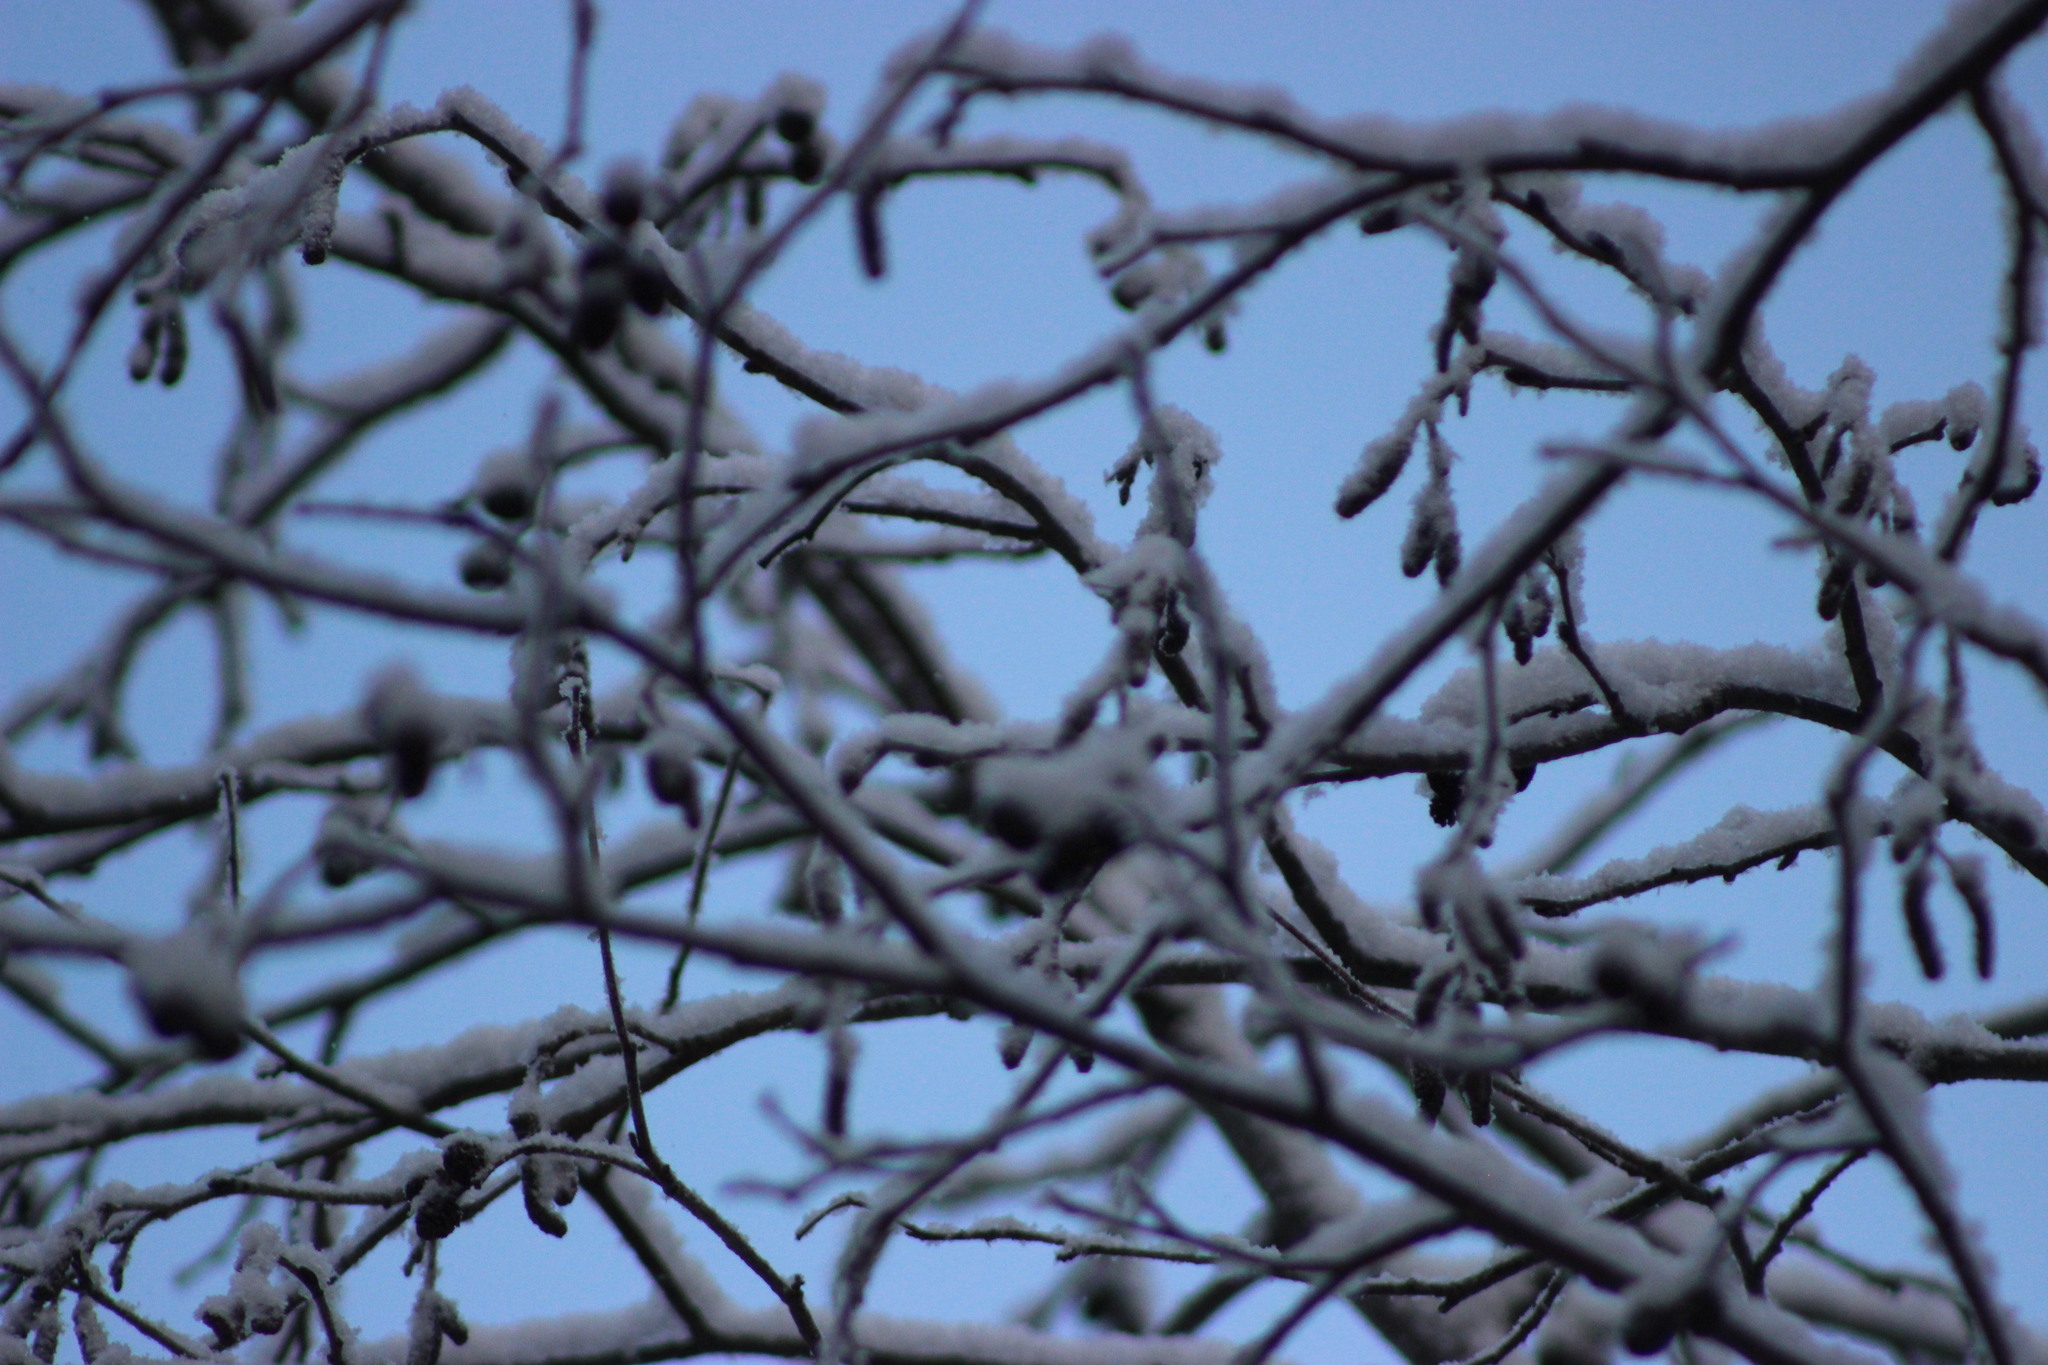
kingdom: Plantae
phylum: Tracheophyta
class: Magnoliopsida
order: Fagales
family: Betulaceae
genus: Alnus
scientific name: Alnus incana
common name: Grey alder
